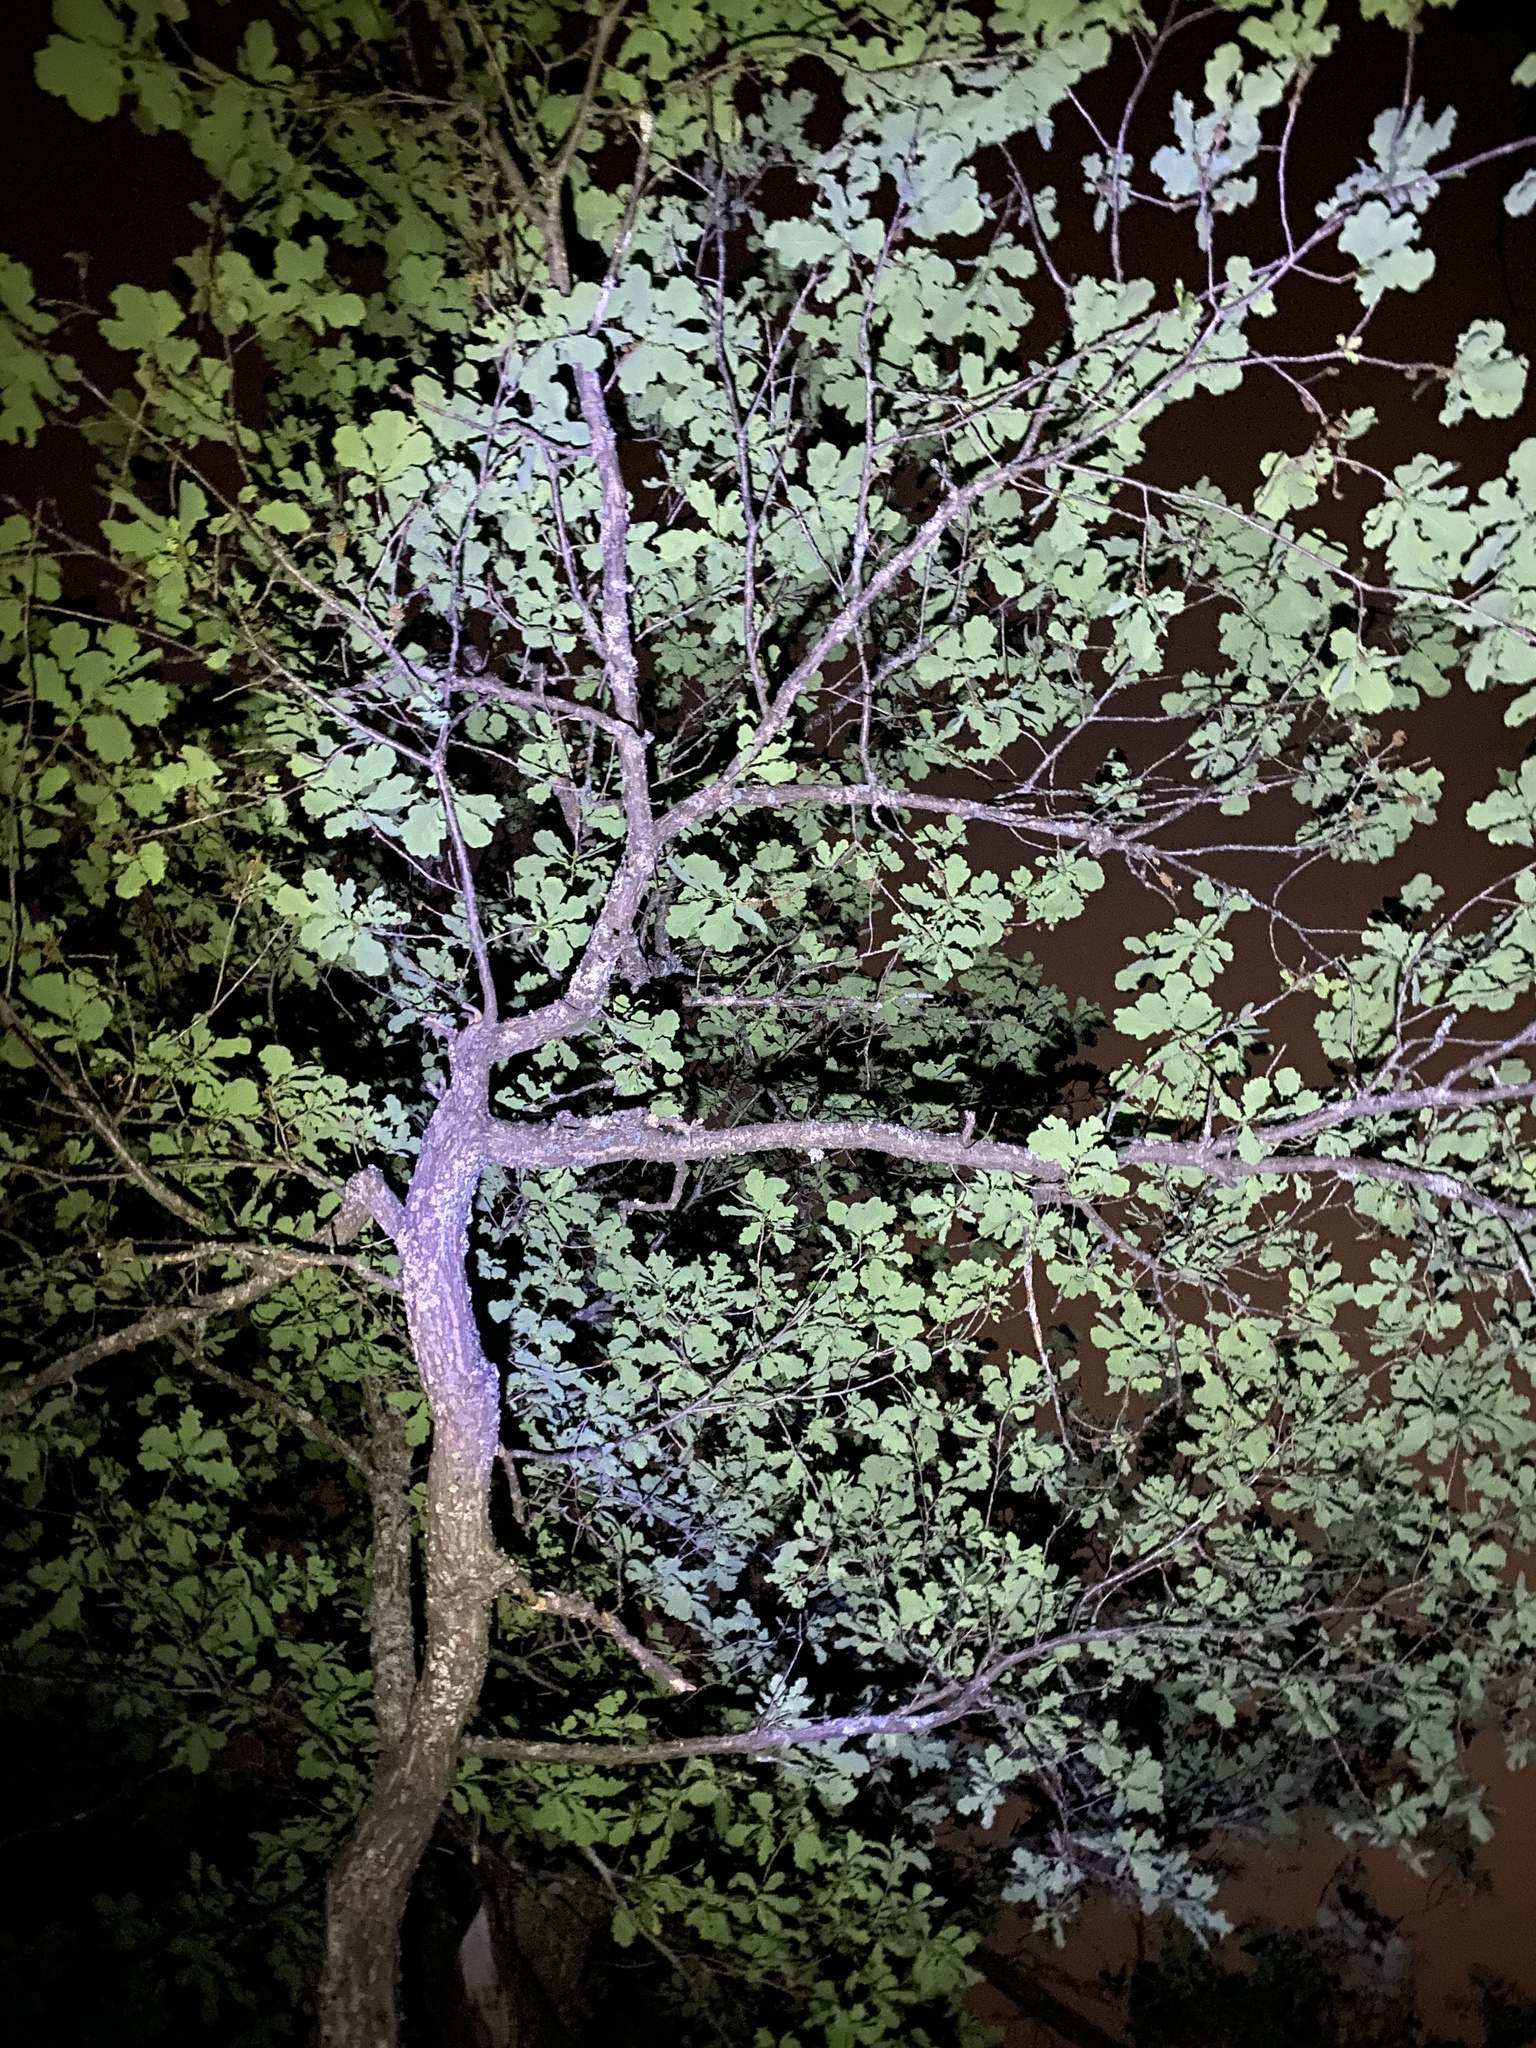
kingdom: Plantae
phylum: Tracheophyta
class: Magnoliopsida
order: Fagales
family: Fagaceae
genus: Quercus
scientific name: Quercus robur
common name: Pedunculate oak
